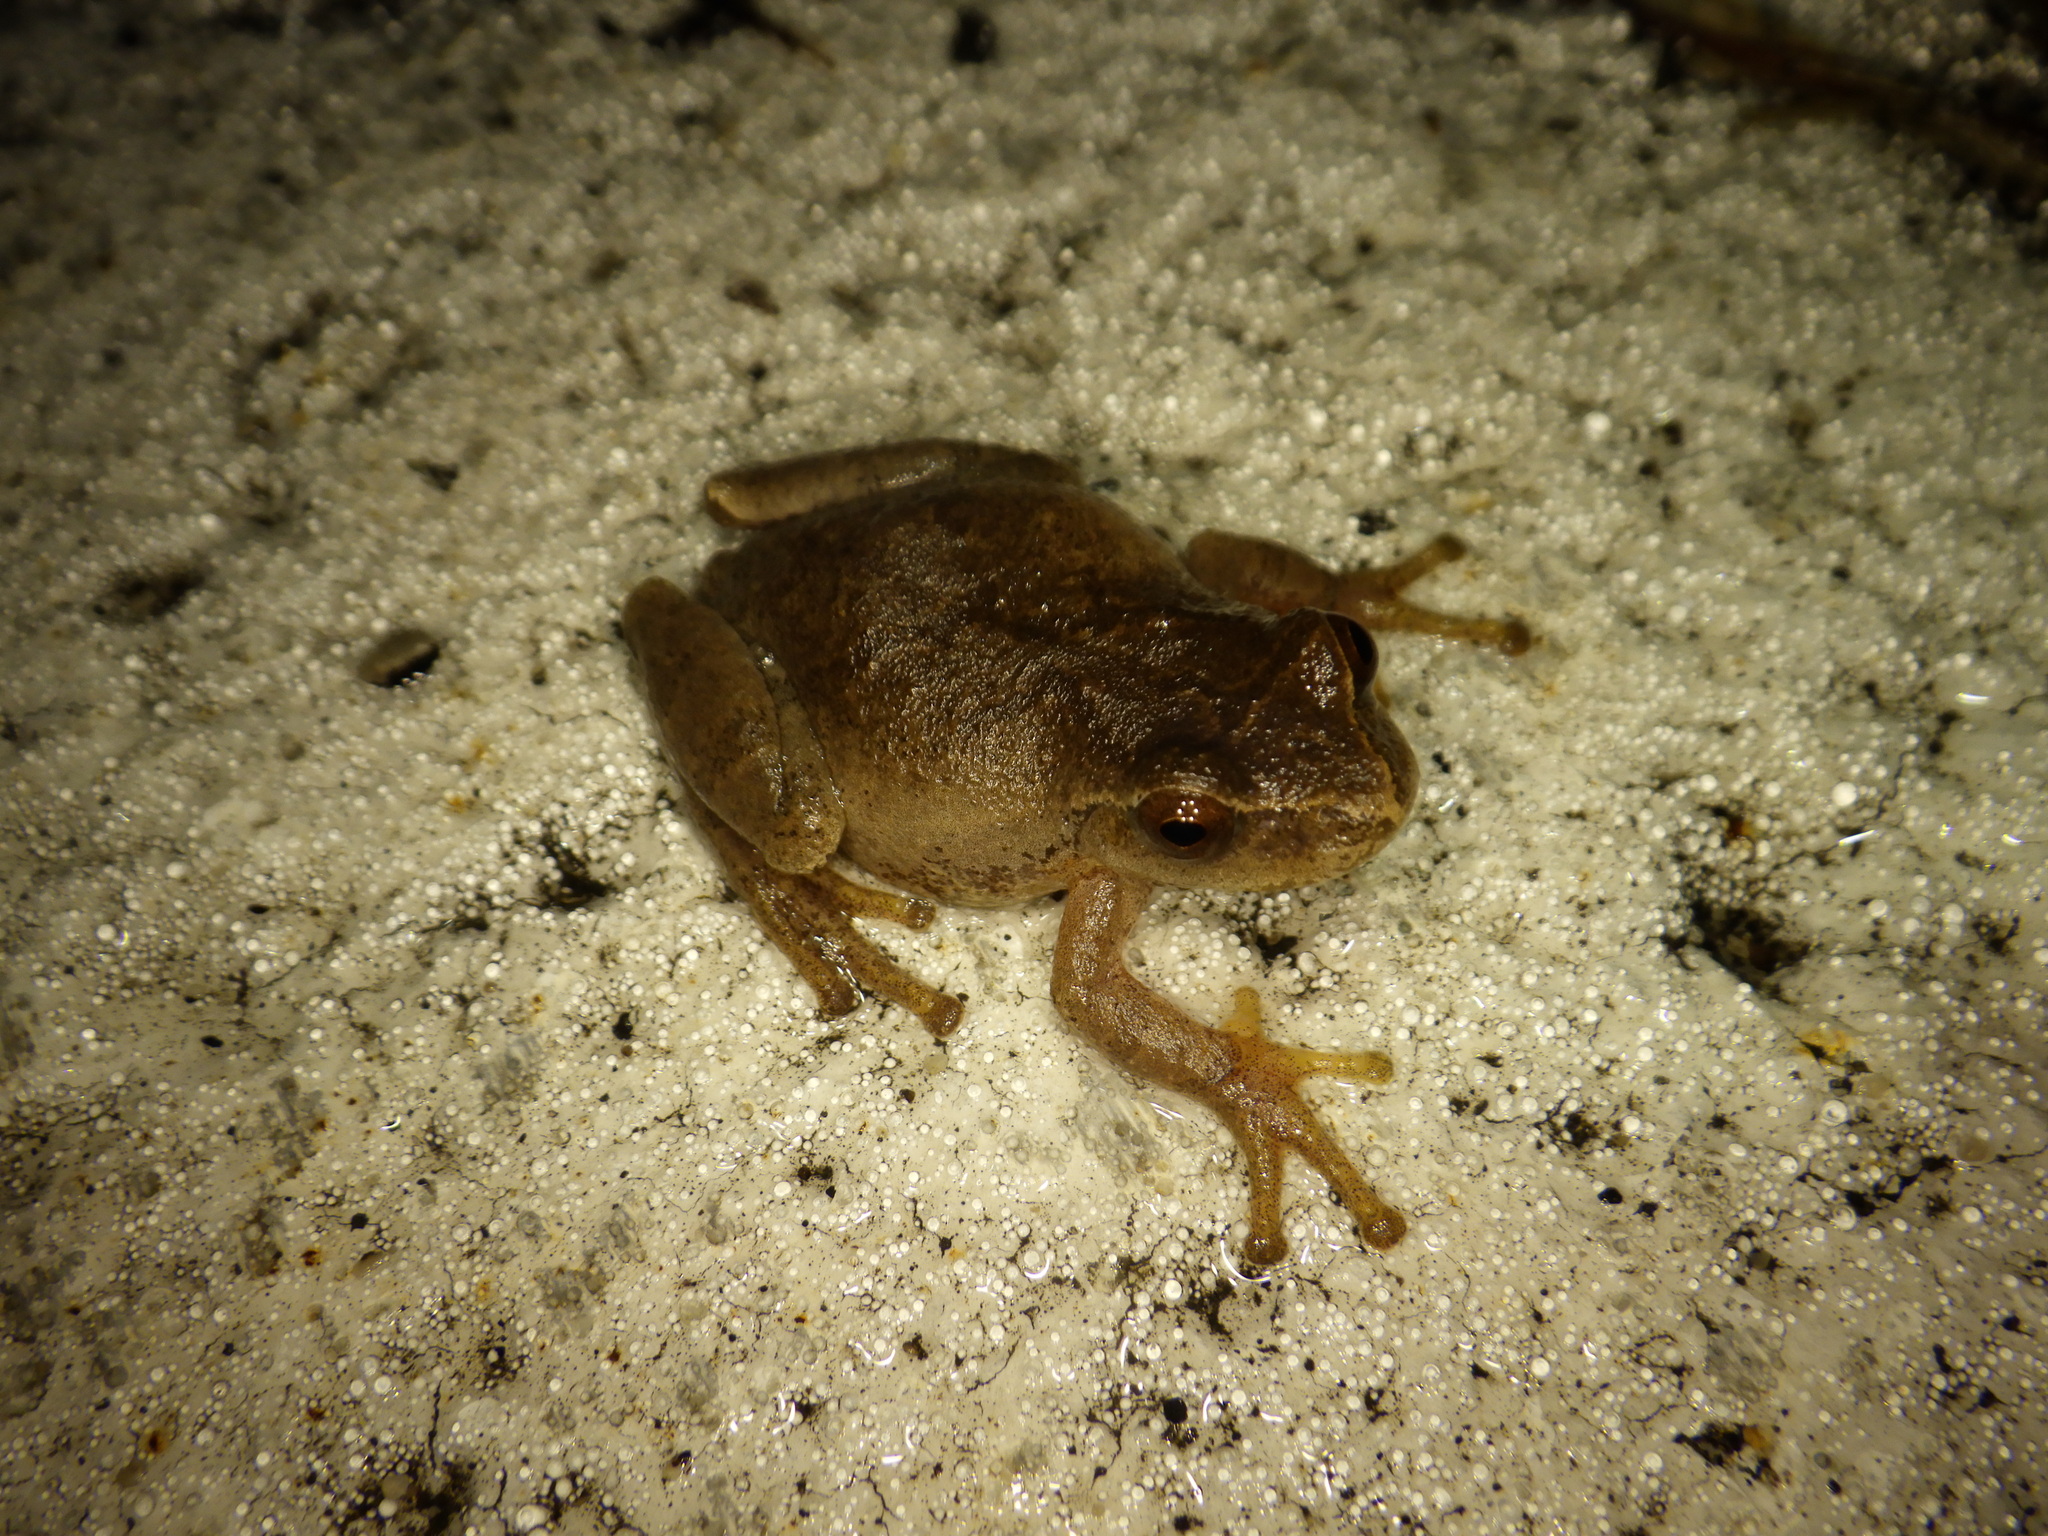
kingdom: Animalia
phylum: Chordata
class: Amphibia
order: Anura
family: Hylidae
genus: Pseudacris
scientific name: Pseudacris crucifer
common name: Spring peeper
